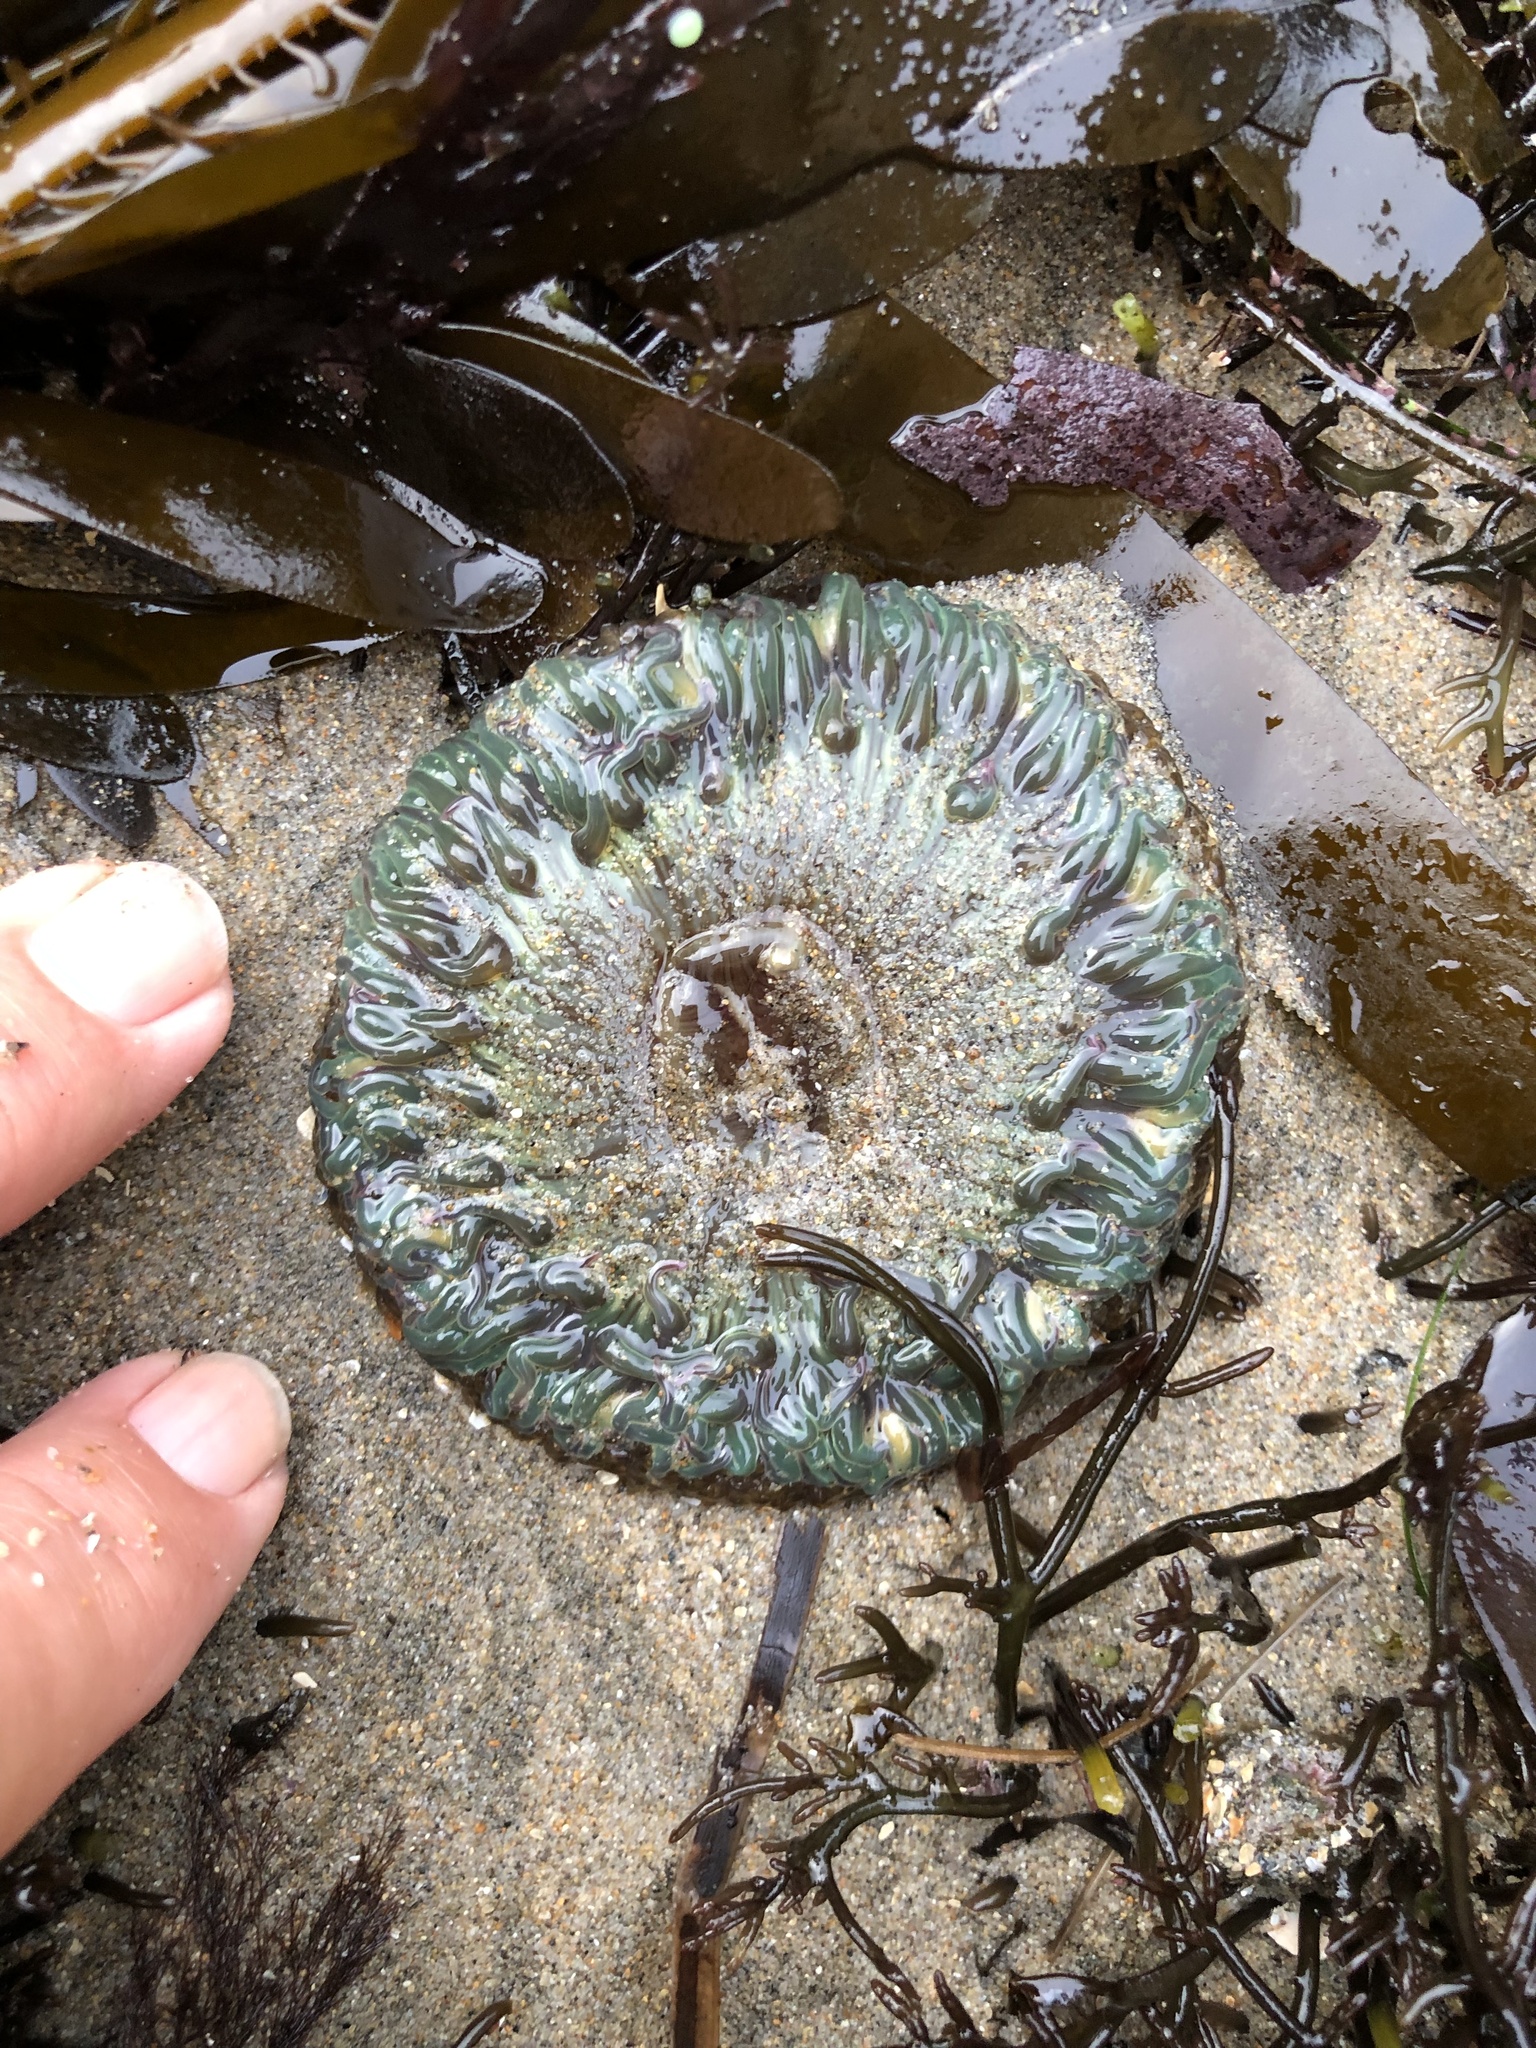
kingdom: Animalia
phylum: Cnidaria
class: Anthozoa
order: Actiniaria
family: Actiniidae
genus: Anthopleura
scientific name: Anthopleura sola
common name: Sun anemone
